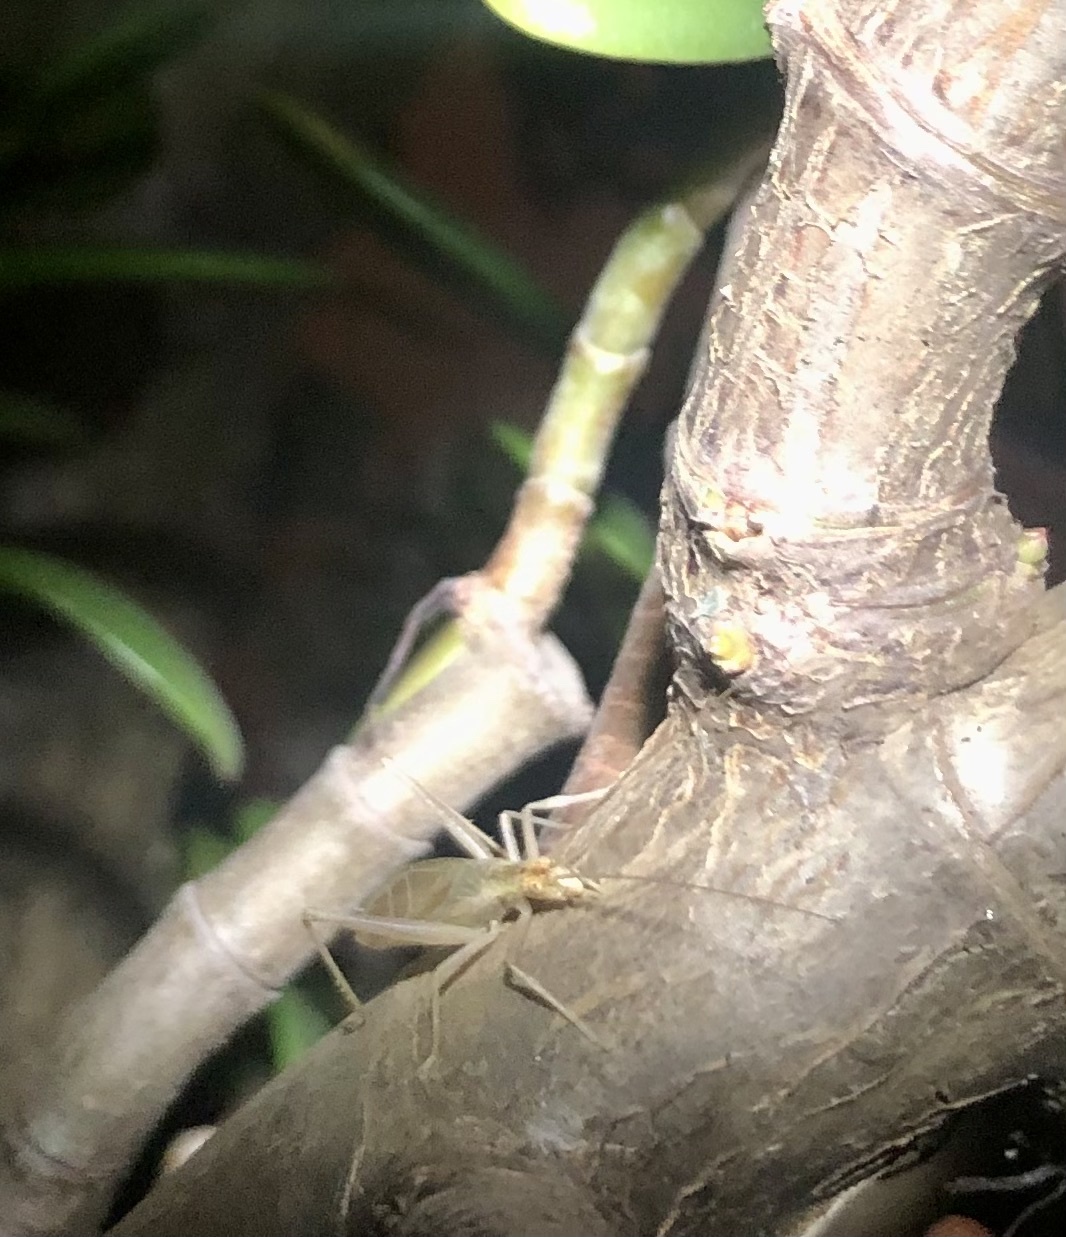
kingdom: Animalia
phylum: Arthropoda
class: Insecta
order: Orthoptera
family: Gryllidae
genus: Oecanthus
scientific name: Oecanthus pellucens
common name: Tree-cricket
